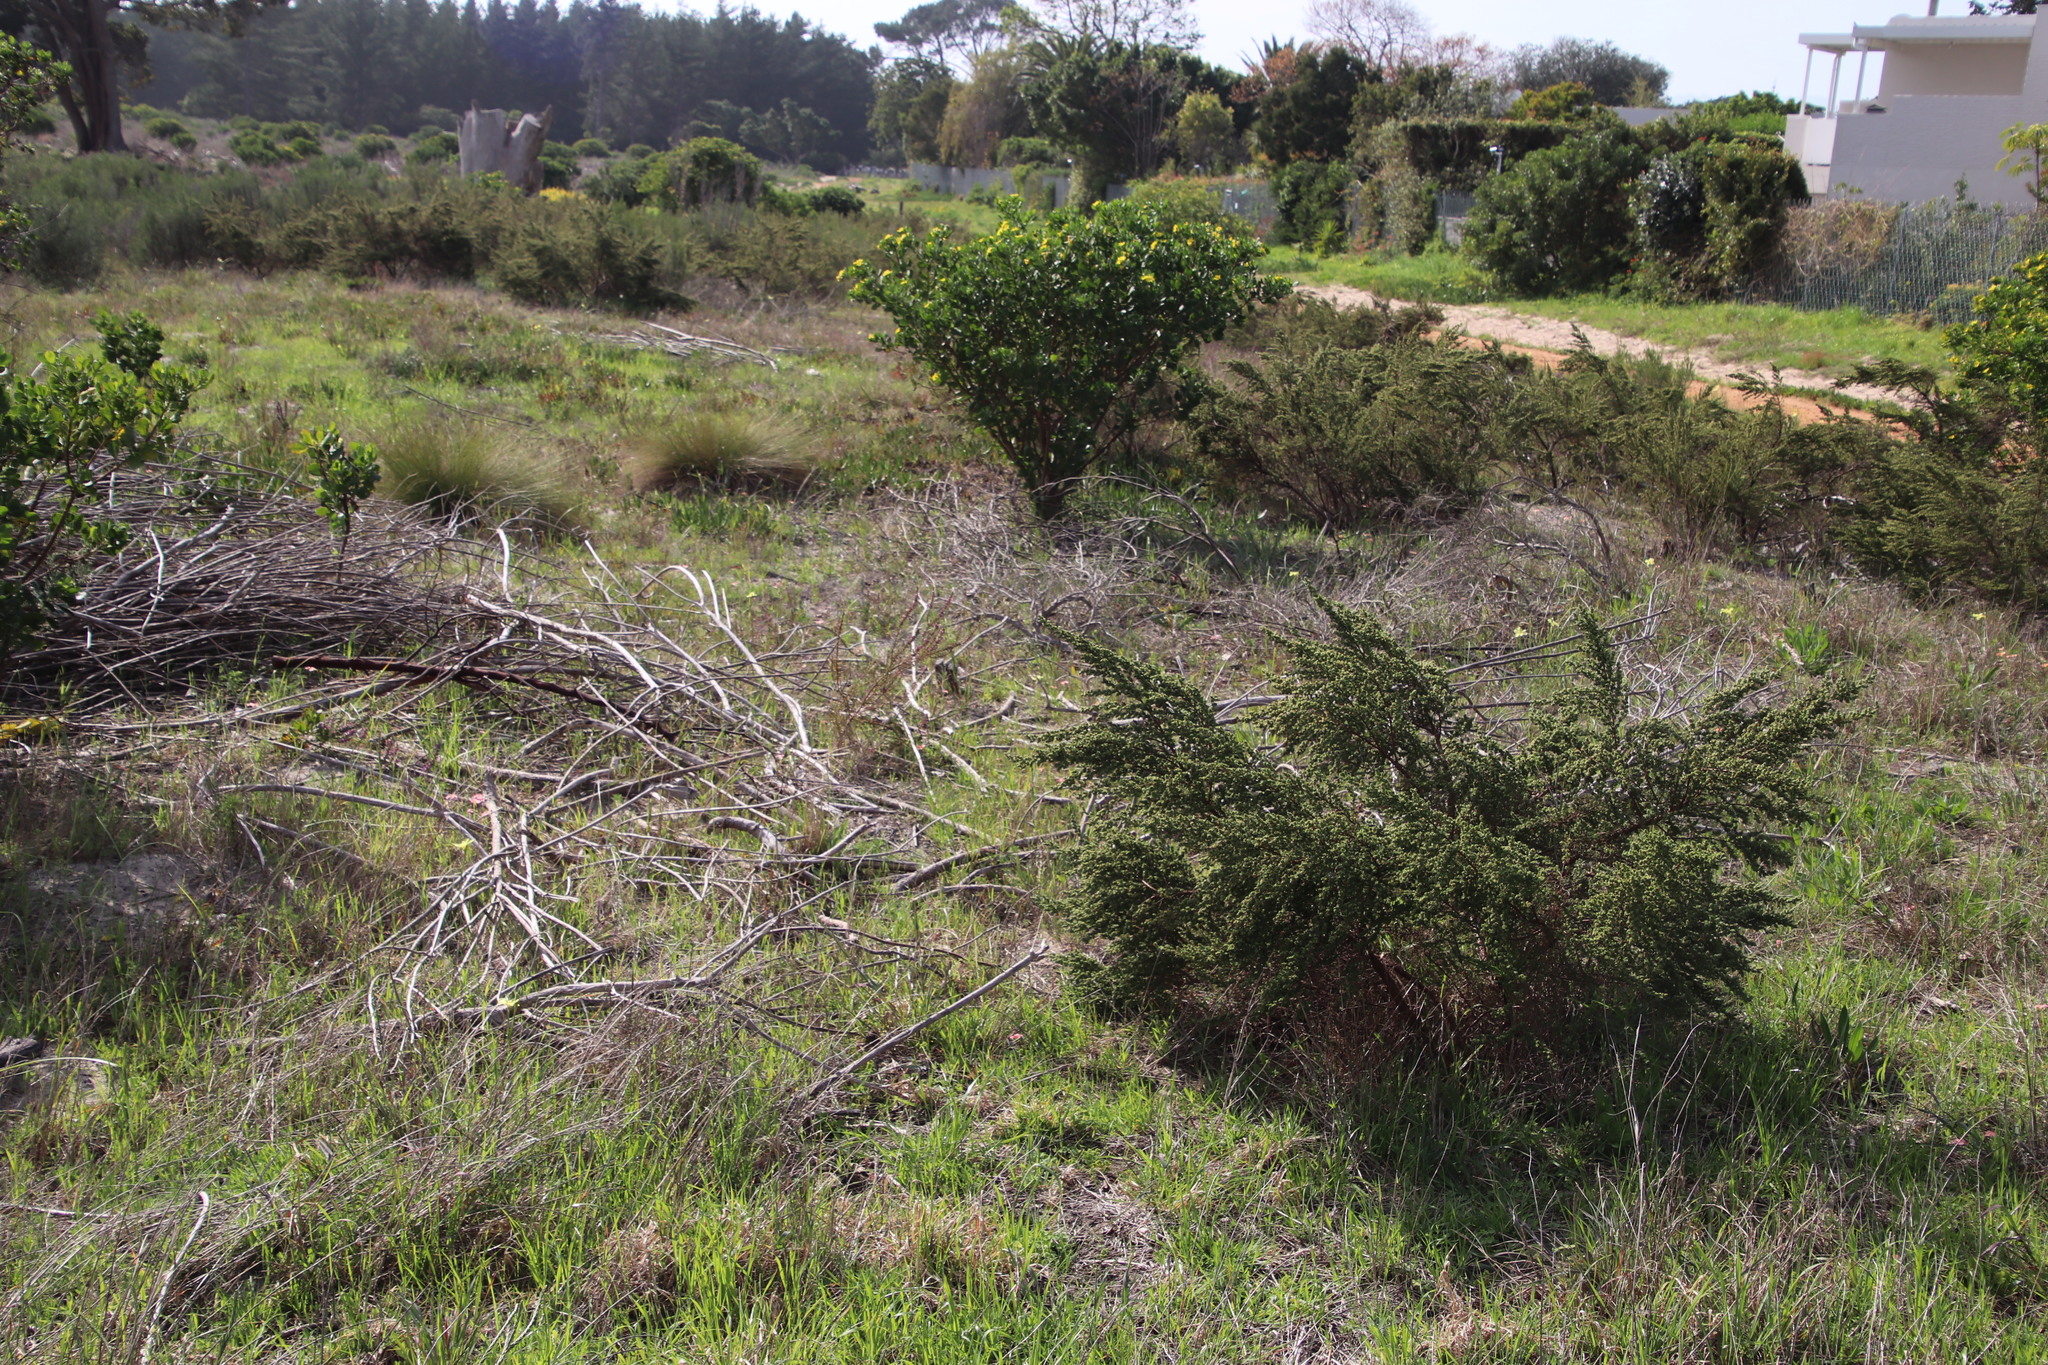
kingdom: Plantae
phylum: Tracheophyta
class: Magnoliopsida
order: Rosales
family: Rosaceae
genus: Cliffortia
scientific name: Cliffortia polygonifolia
